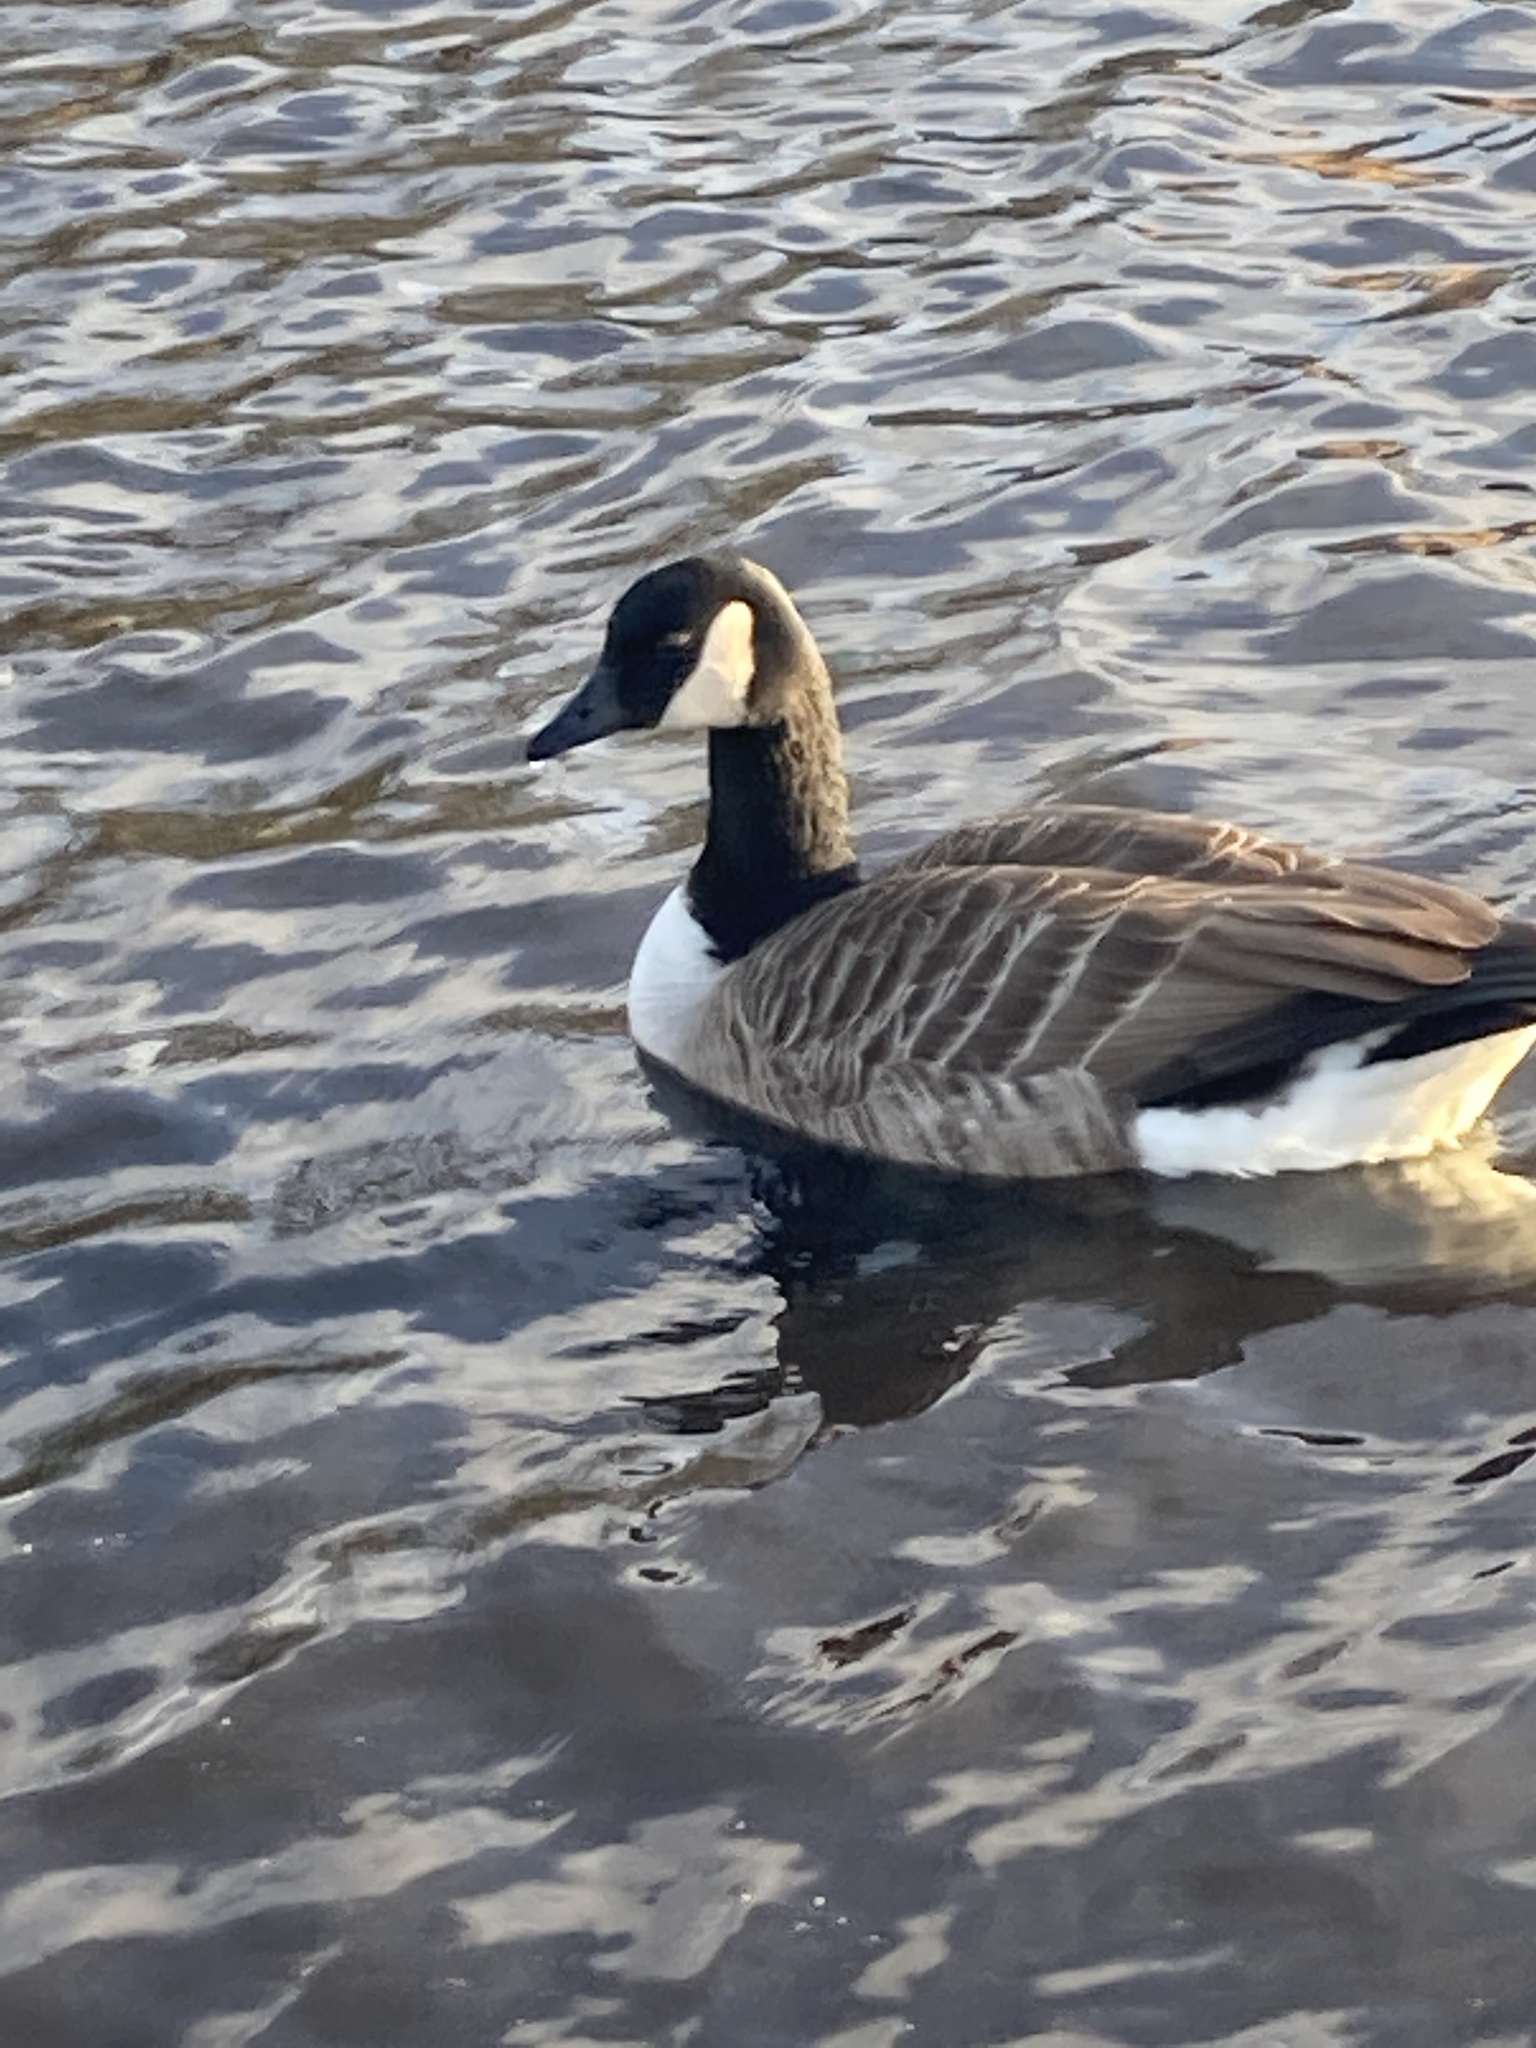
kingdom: Animalia
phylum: Chordata
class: Aves
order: Anseriformes
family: Anatidae
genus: Branta
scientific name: Branta canadensis
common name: Canada goose
